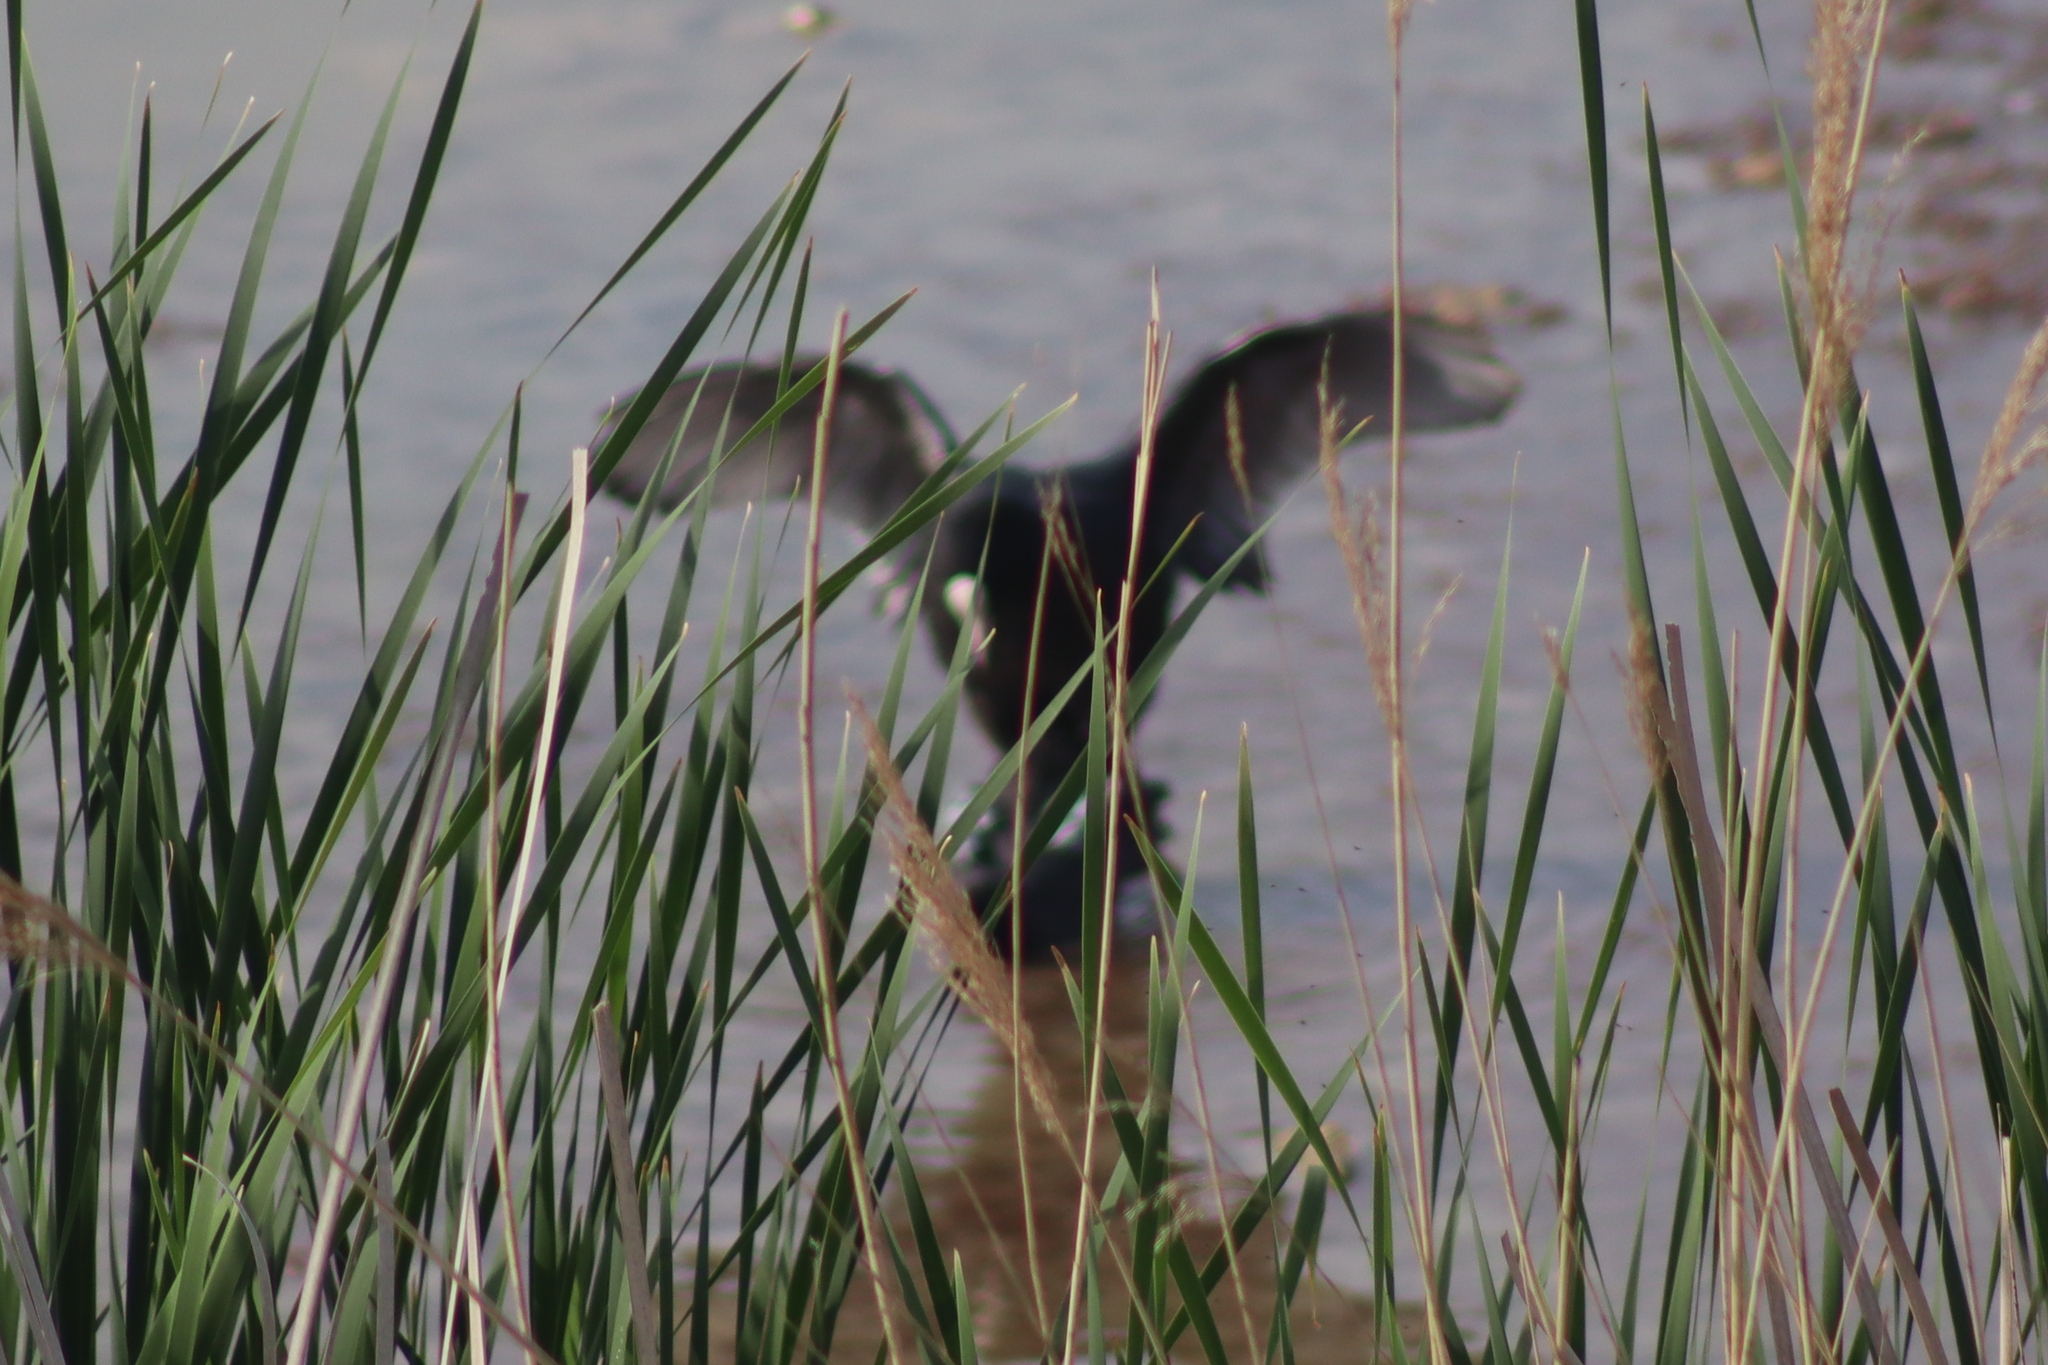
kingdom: Animalia
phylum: Chordata
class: Aves
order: Gruiformes
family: Rallidae
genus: Fulica
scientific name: Fulica atra
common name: Eurasian coot
